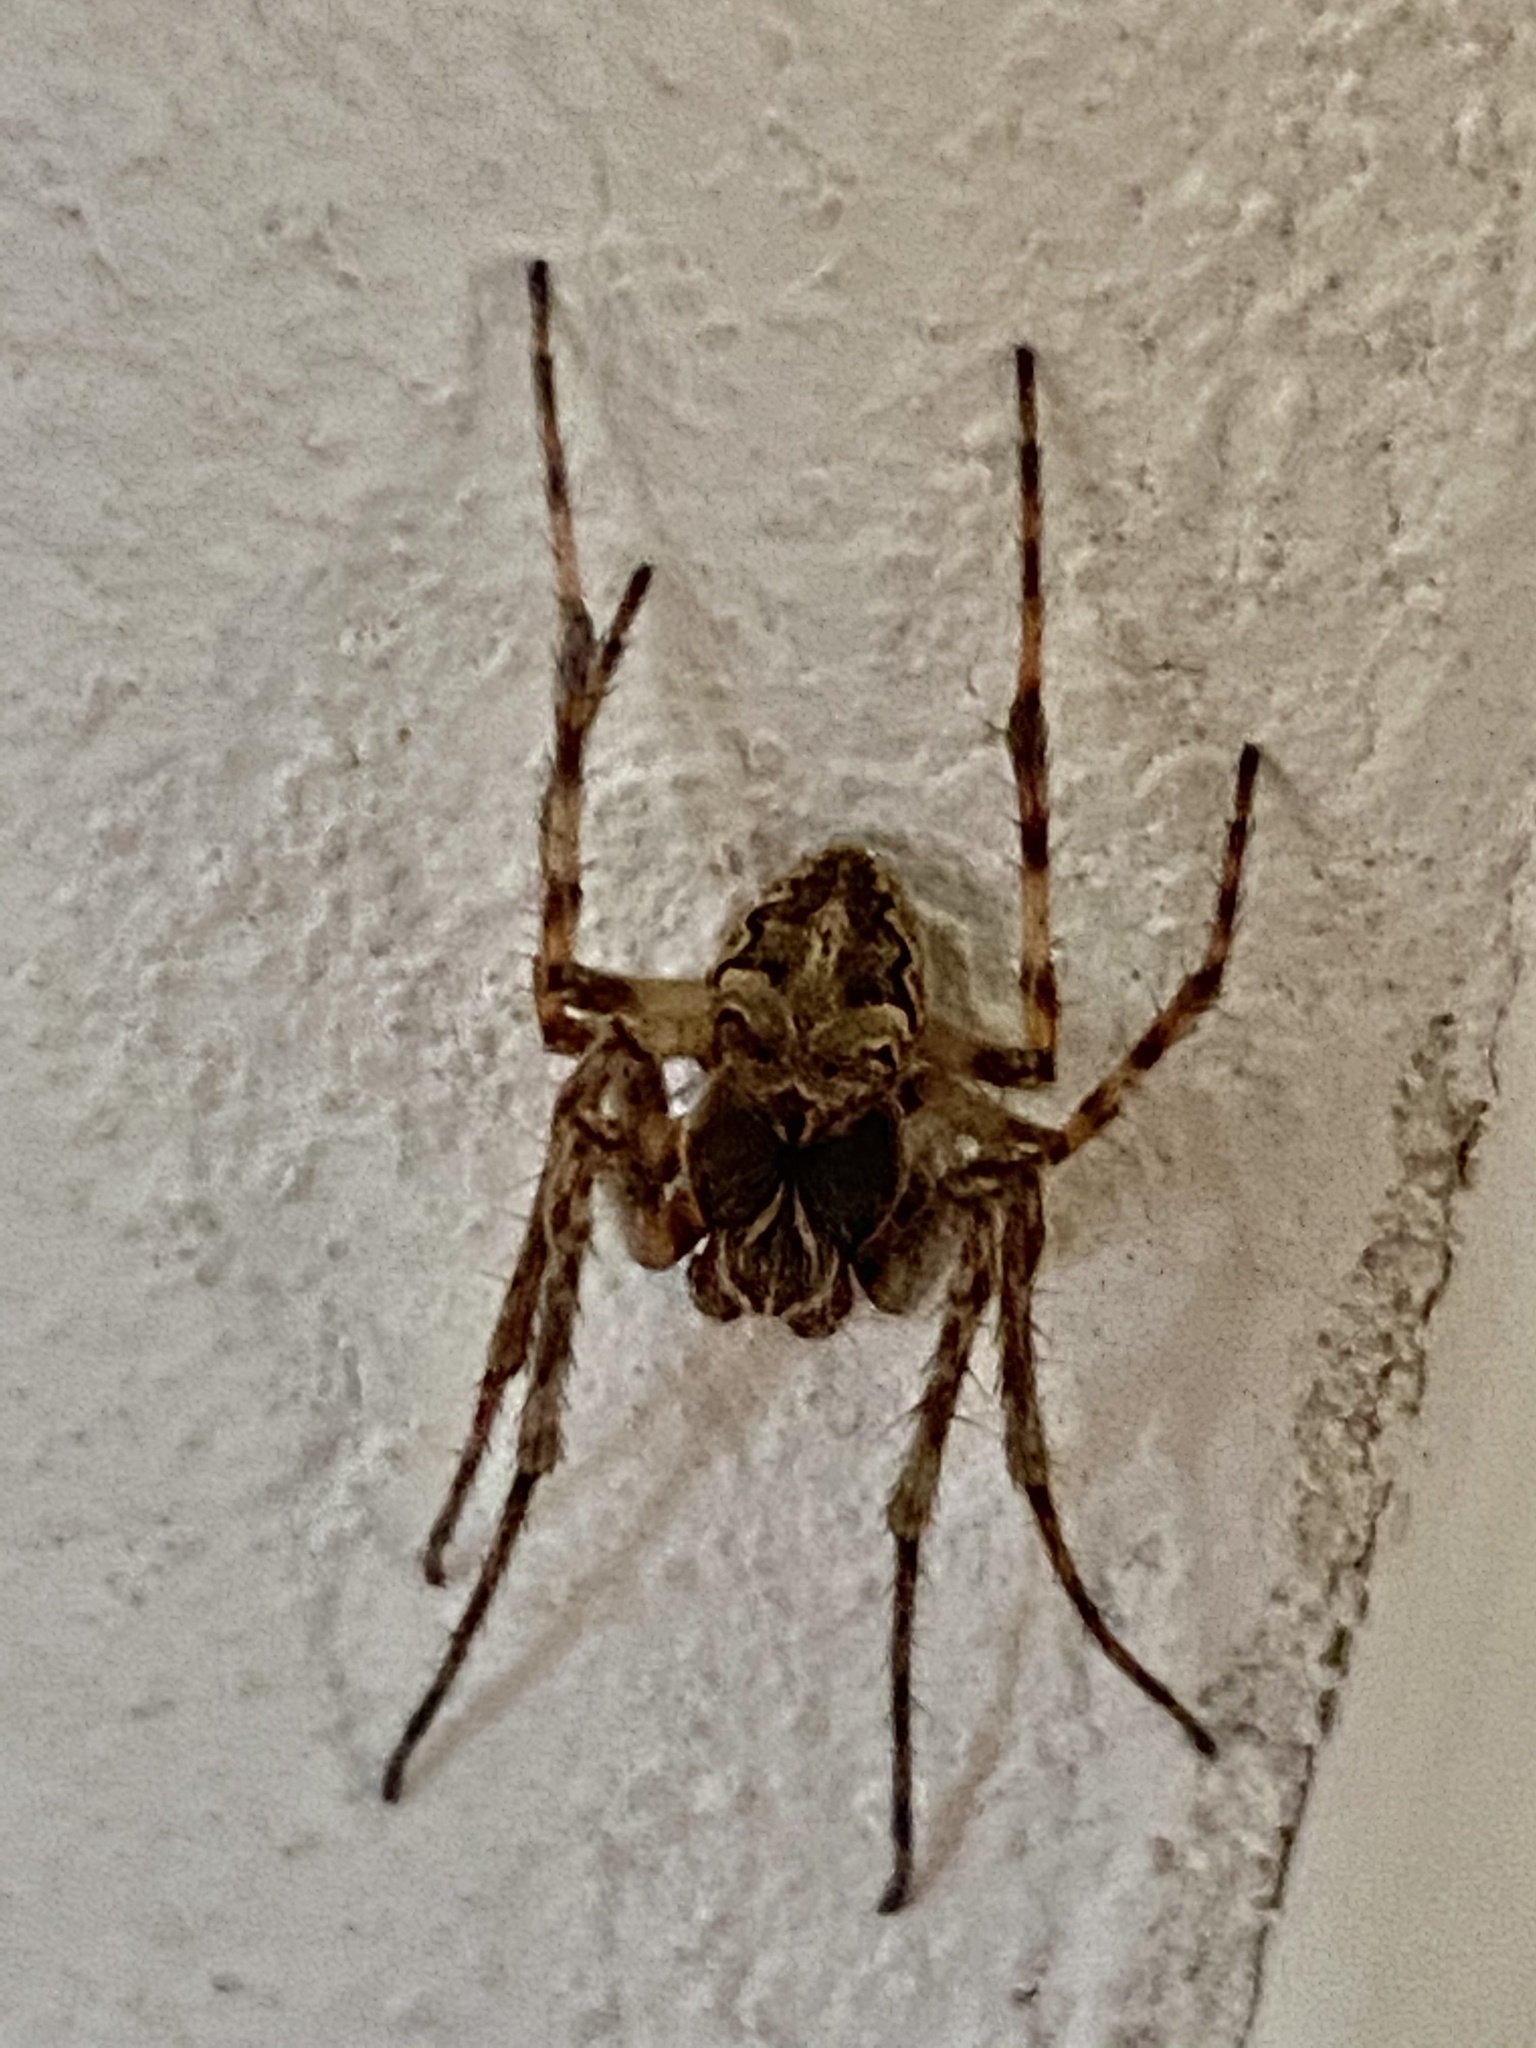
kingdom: Animalia
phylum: Arthropoda
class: Arachnida
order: Araneae
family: Araneidae
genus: Larinioides
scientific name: Larinioides sclopetarius
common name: Bridge orbweaver
